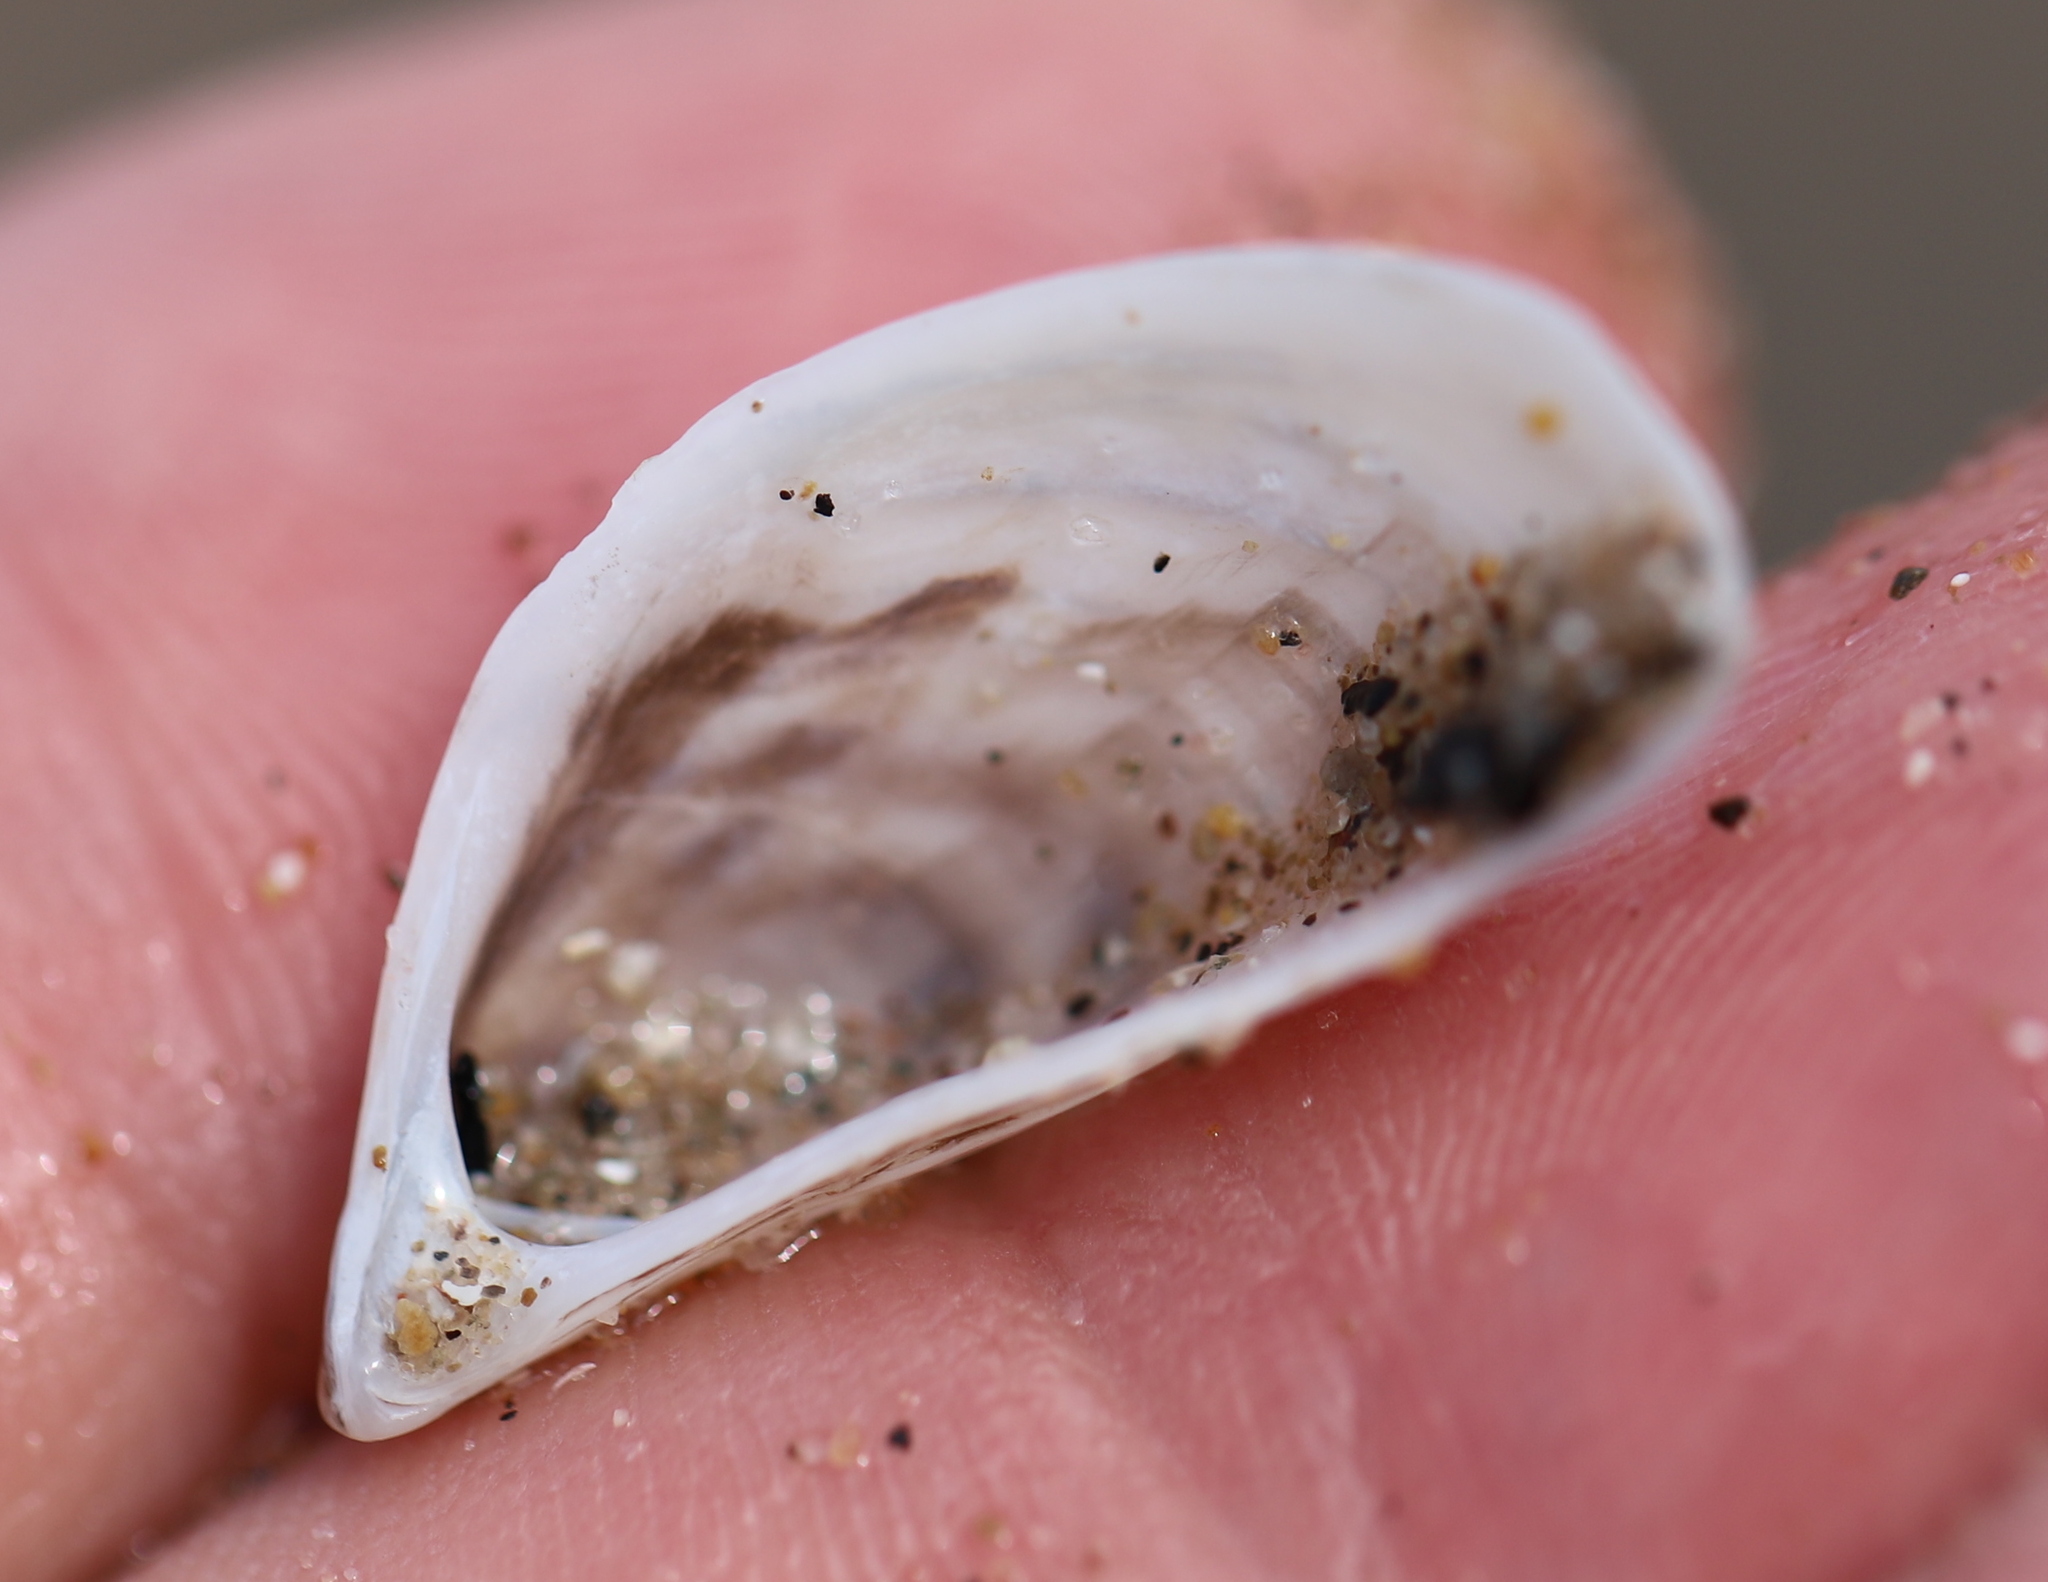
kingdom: Animalia
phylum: Mollusca
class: Bivalvia
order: Myida
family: Dreissenidae
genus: Dreissena
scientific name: Dreissena polymorpha
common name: Zebra mussel
